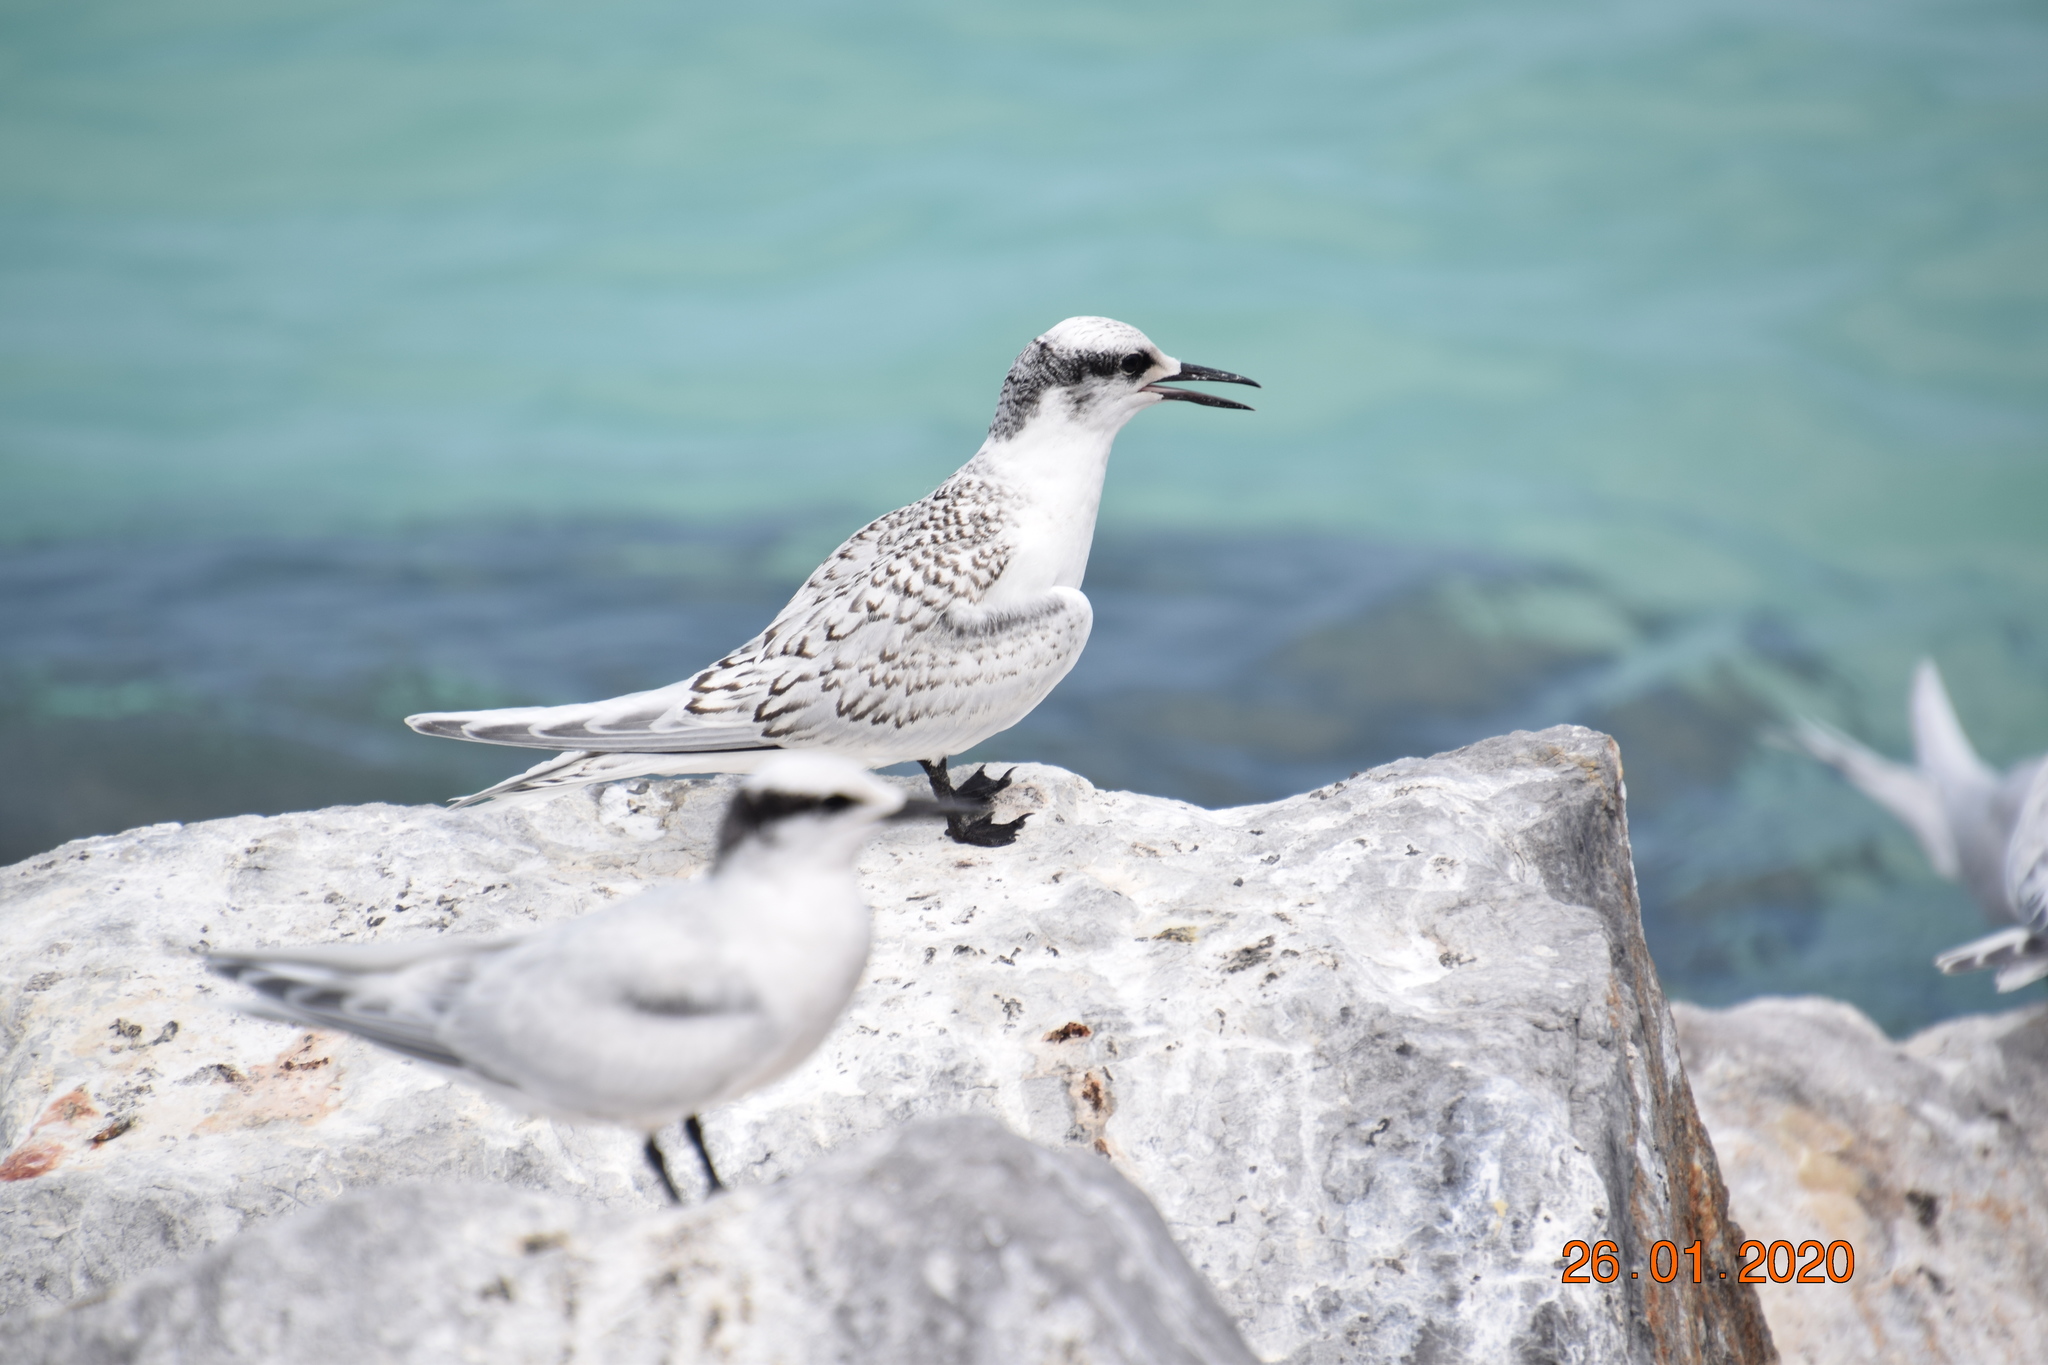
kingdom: Animalia
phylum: Chordata
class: Aves
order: Charadriiformes
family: Laridae
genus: Sterna
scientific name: Sterna sumatrana
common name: Black-naped tern
